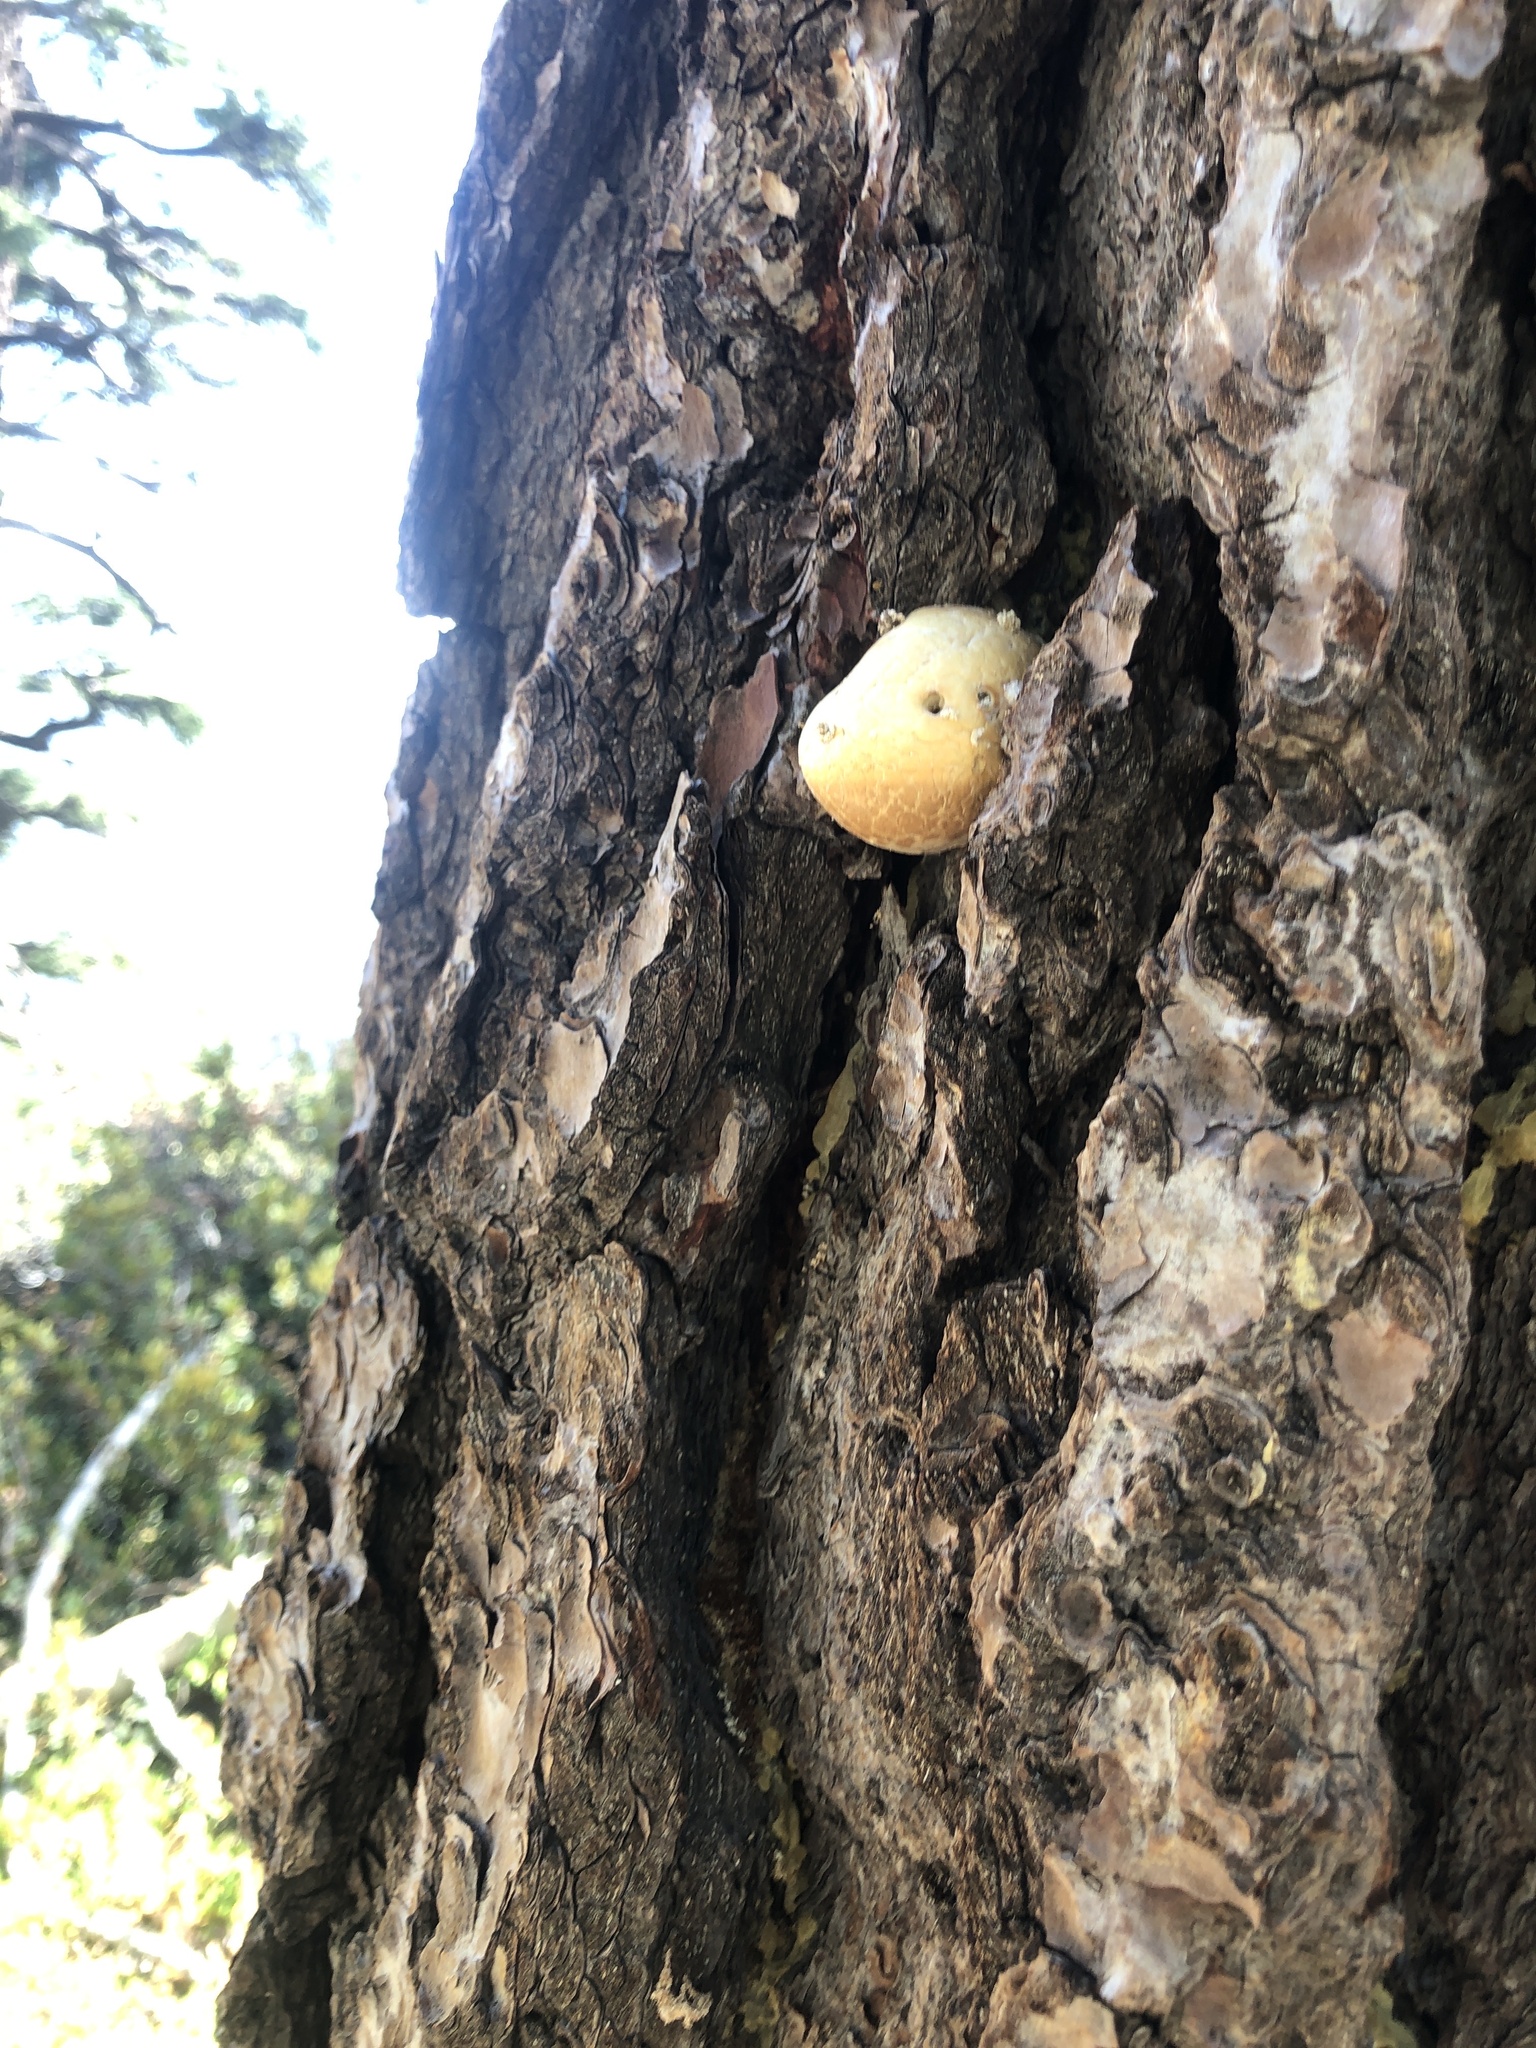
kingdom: Fungi
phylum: Basidiomycota
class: Agaricomycetes
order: Polyporales
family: Polyporaceae
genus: Cryptoporus
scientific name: Cryptoporus volvatus
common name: Veiled polypore
